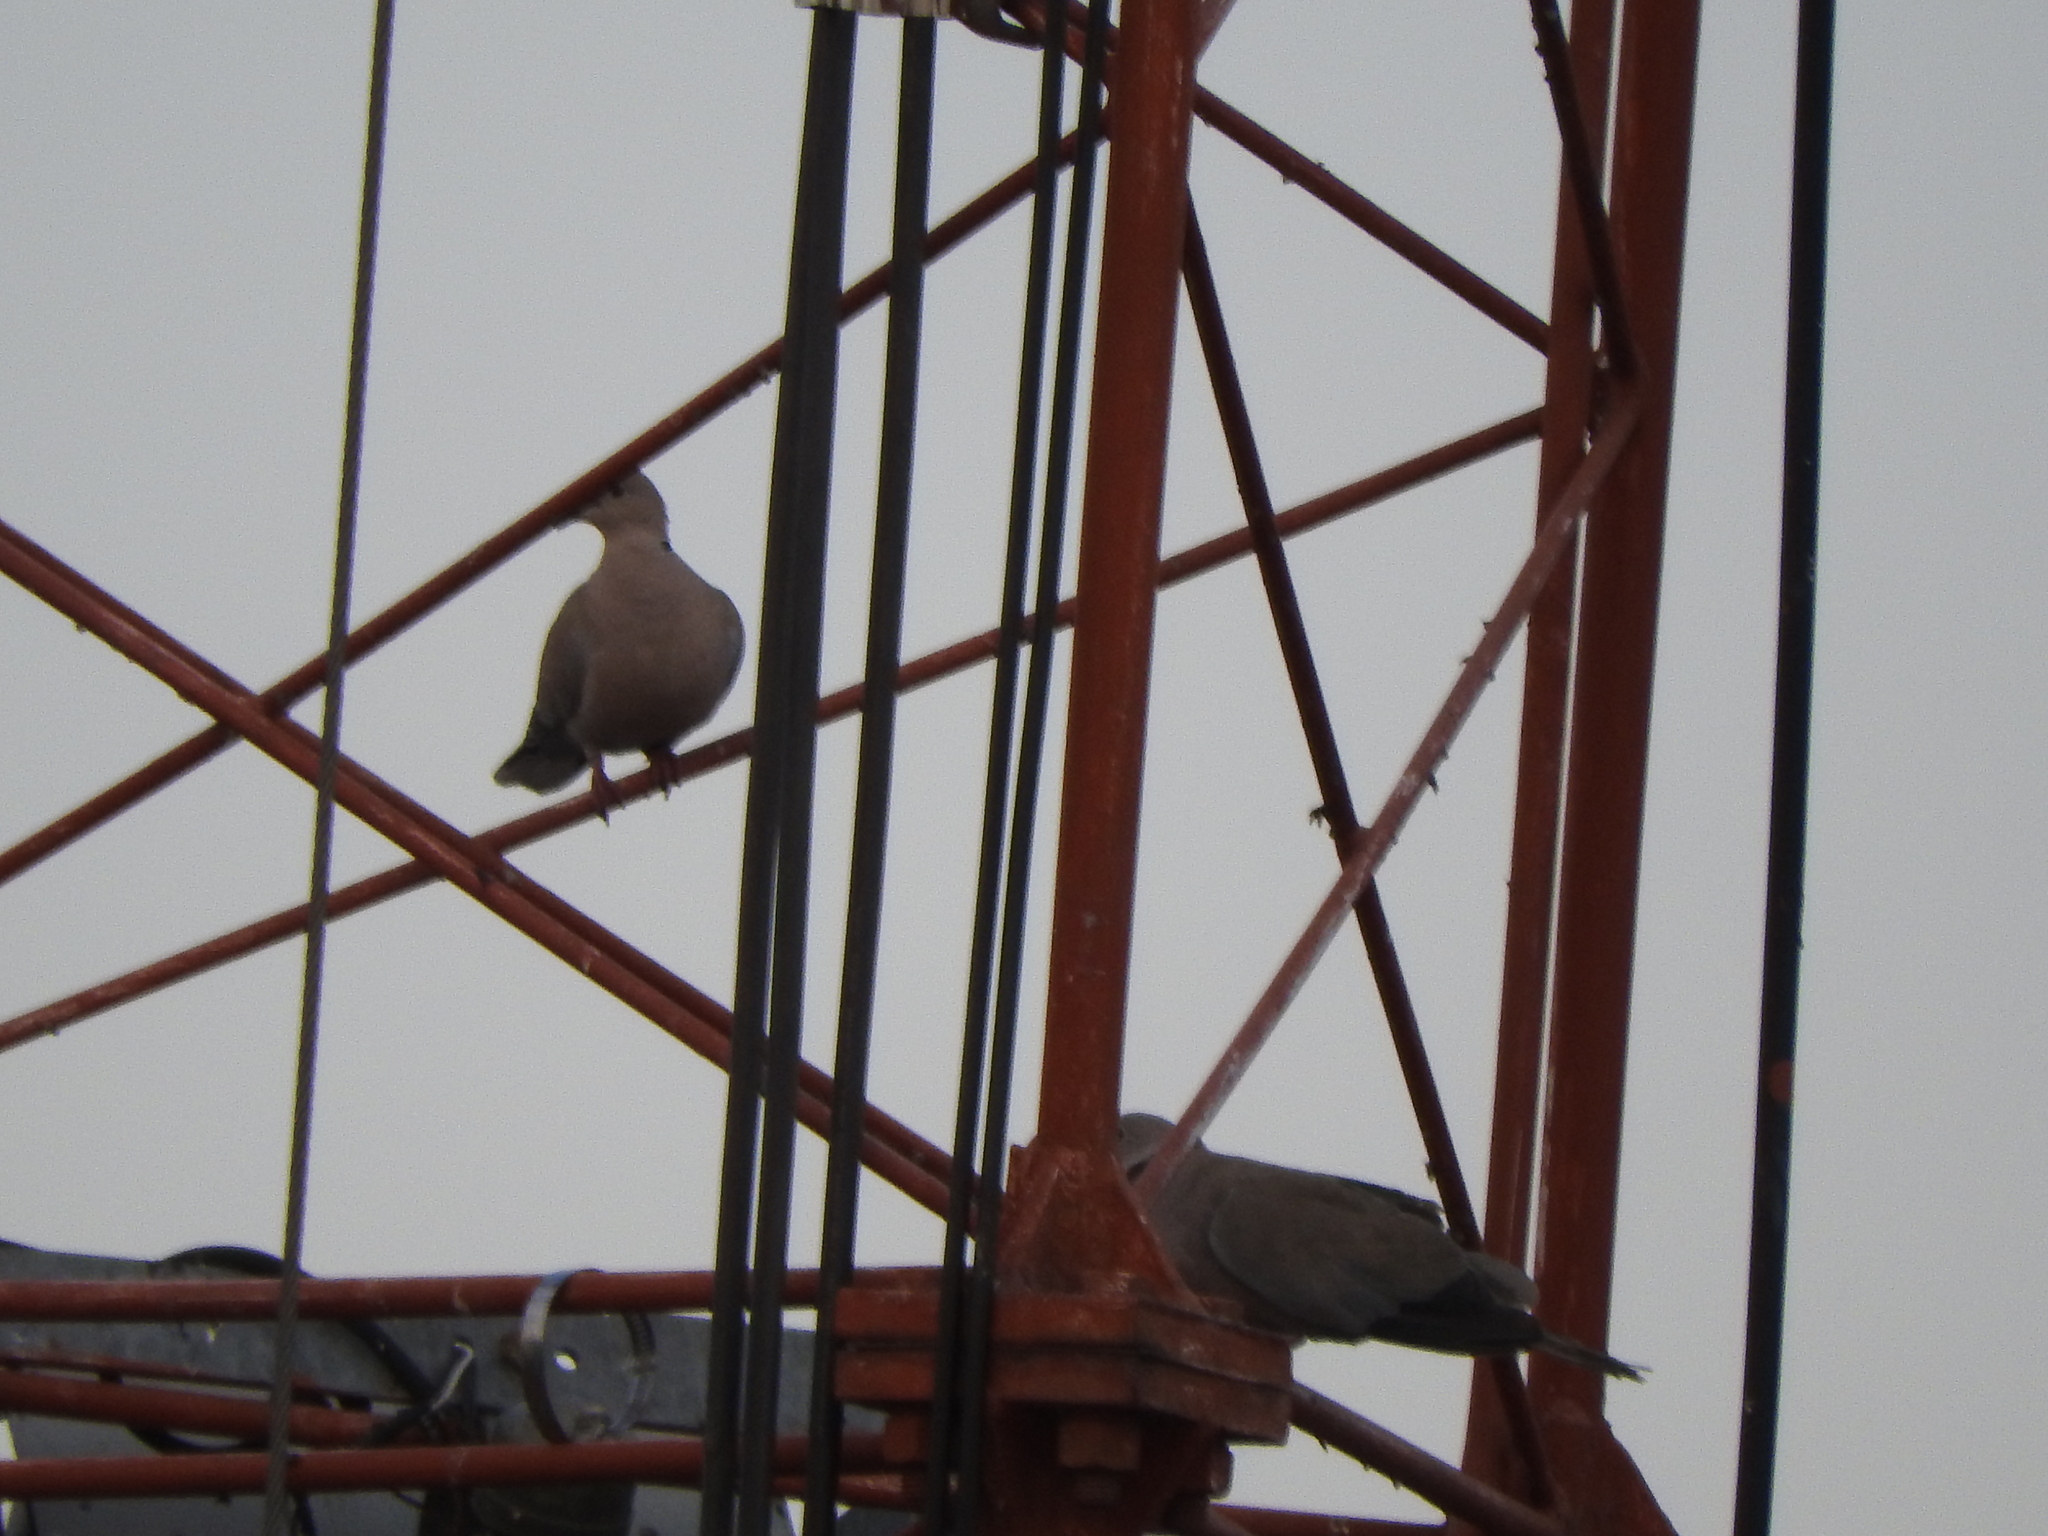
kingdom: Animalia
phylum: Chordata
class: Aves
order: Columbiformes
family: Columbidae
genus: Streptopelia
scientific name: Streptopelia decaocto
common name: Eurasian collared dove
